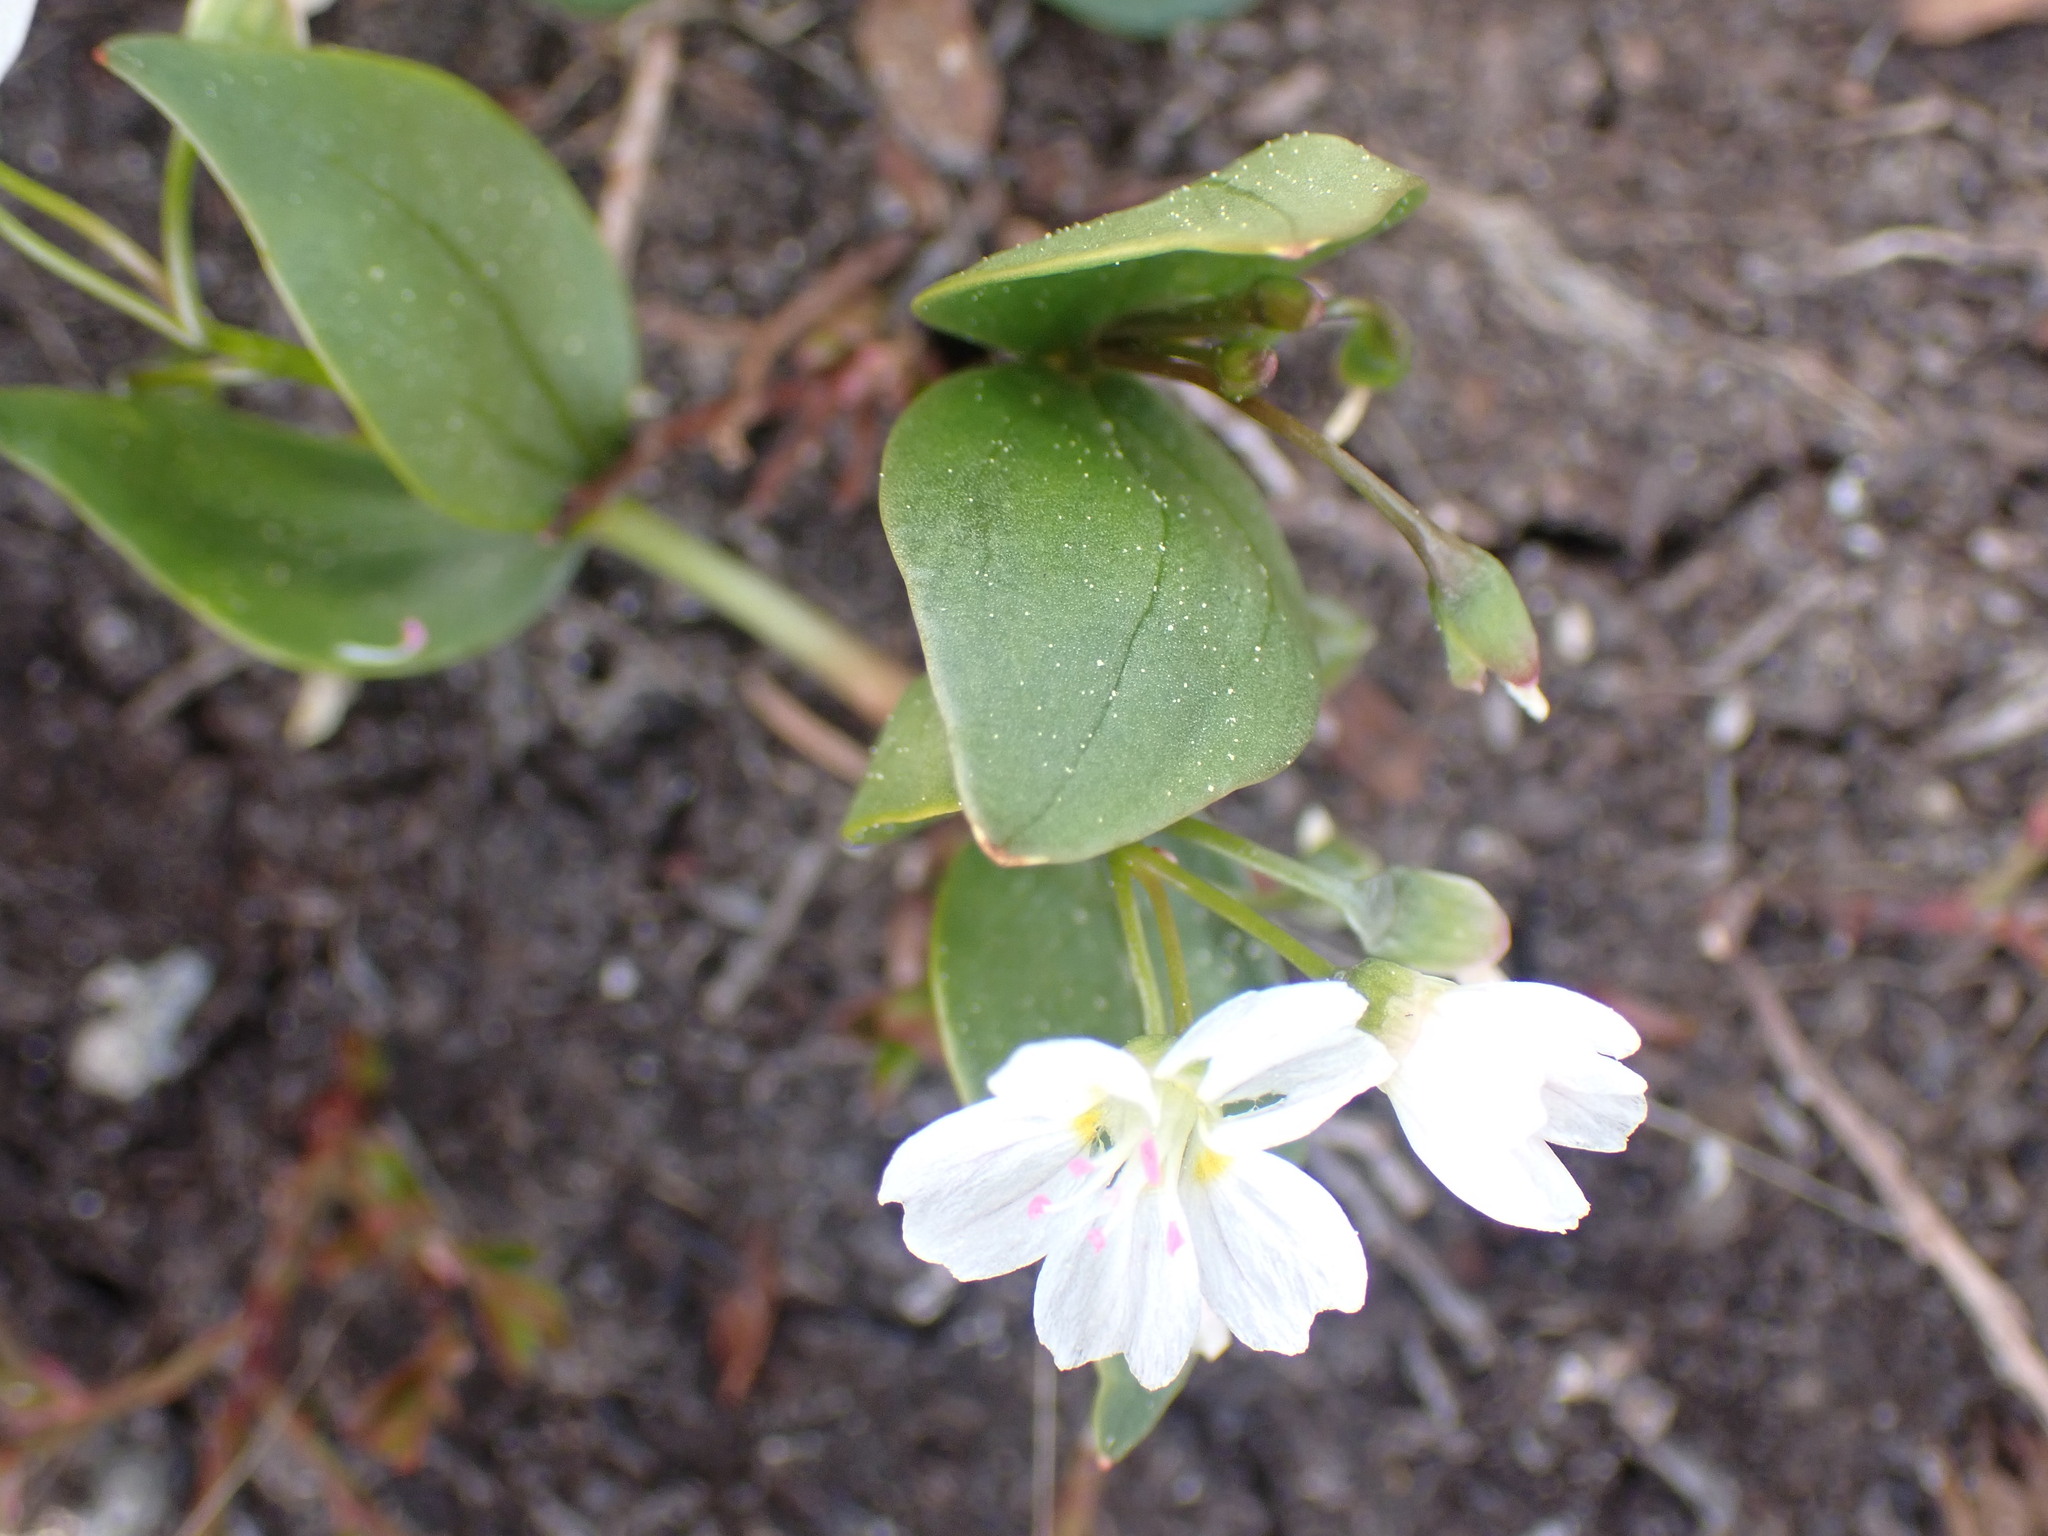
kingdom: Plantae
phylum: Tracheophyta
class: Magnoliopsida
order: Caryophyllales
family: Montiaceae
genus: Claytonia
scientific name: Claytonia lanceolata
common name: Western spring-beauty
